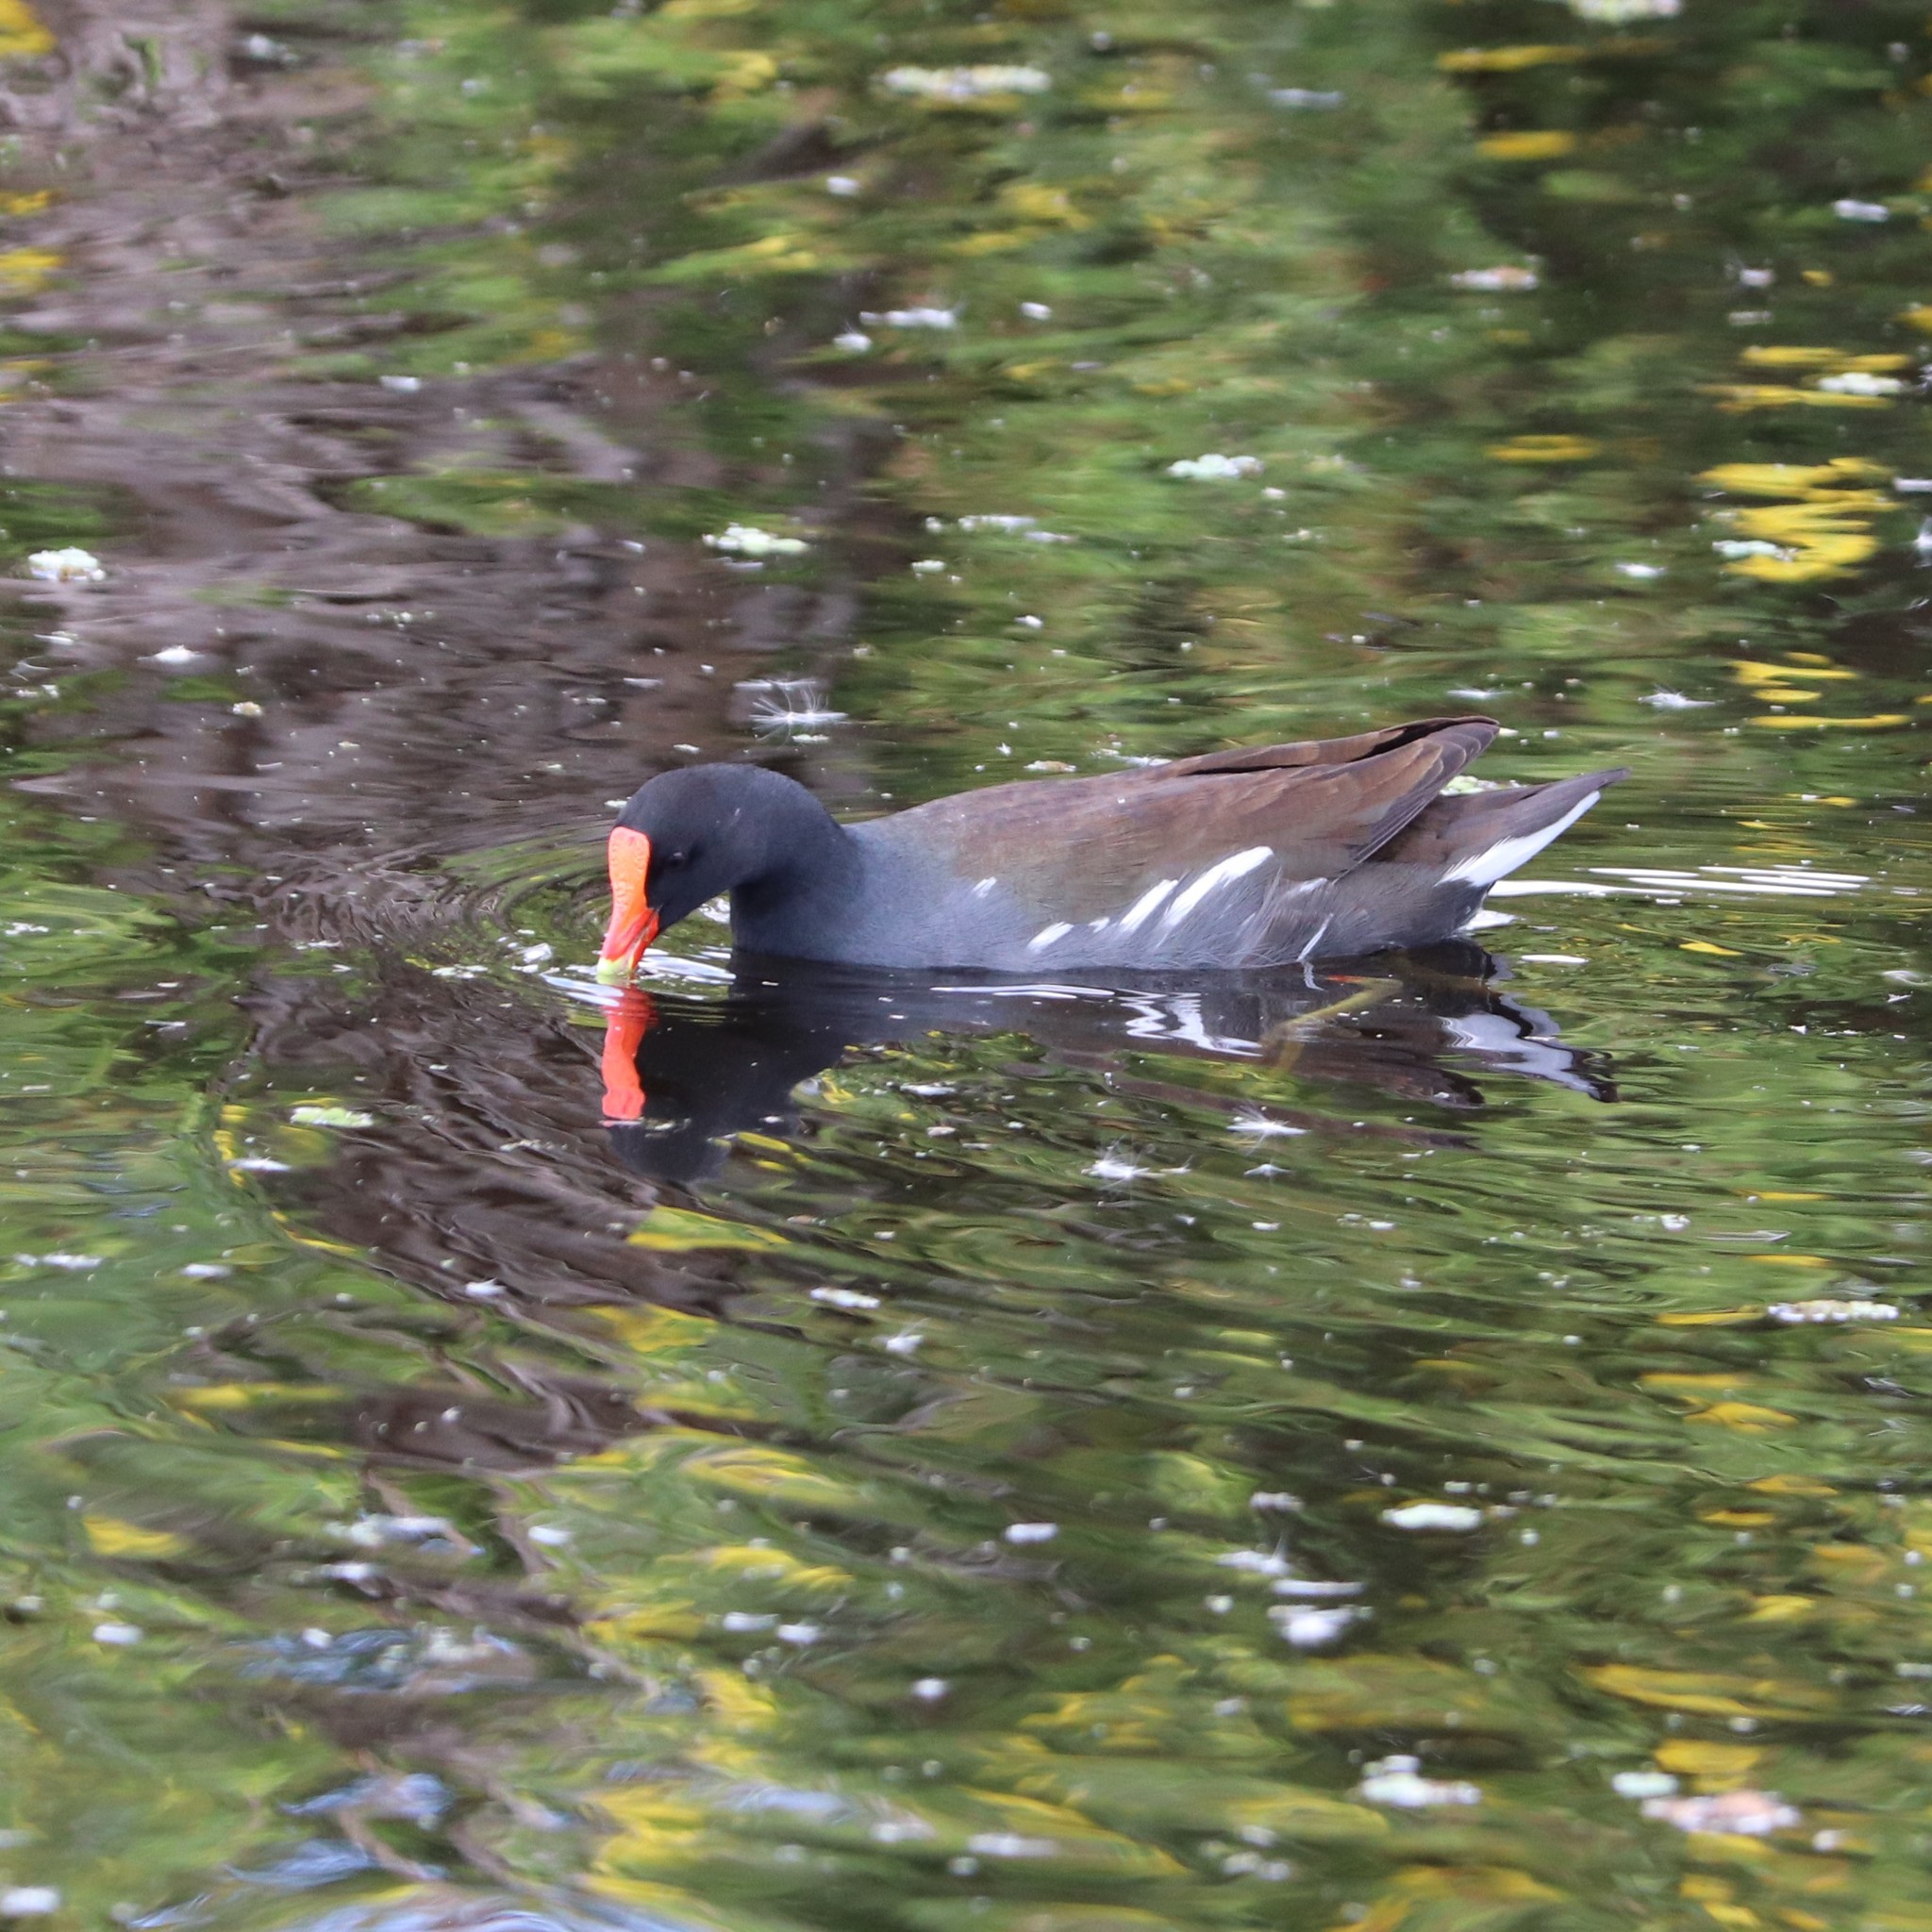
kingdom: Animalia
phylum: Chordata
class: Aves
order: Gruiformes
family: Rallidae
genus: Gallinula
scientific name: Gallinula chloropus
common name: Common moorhen
